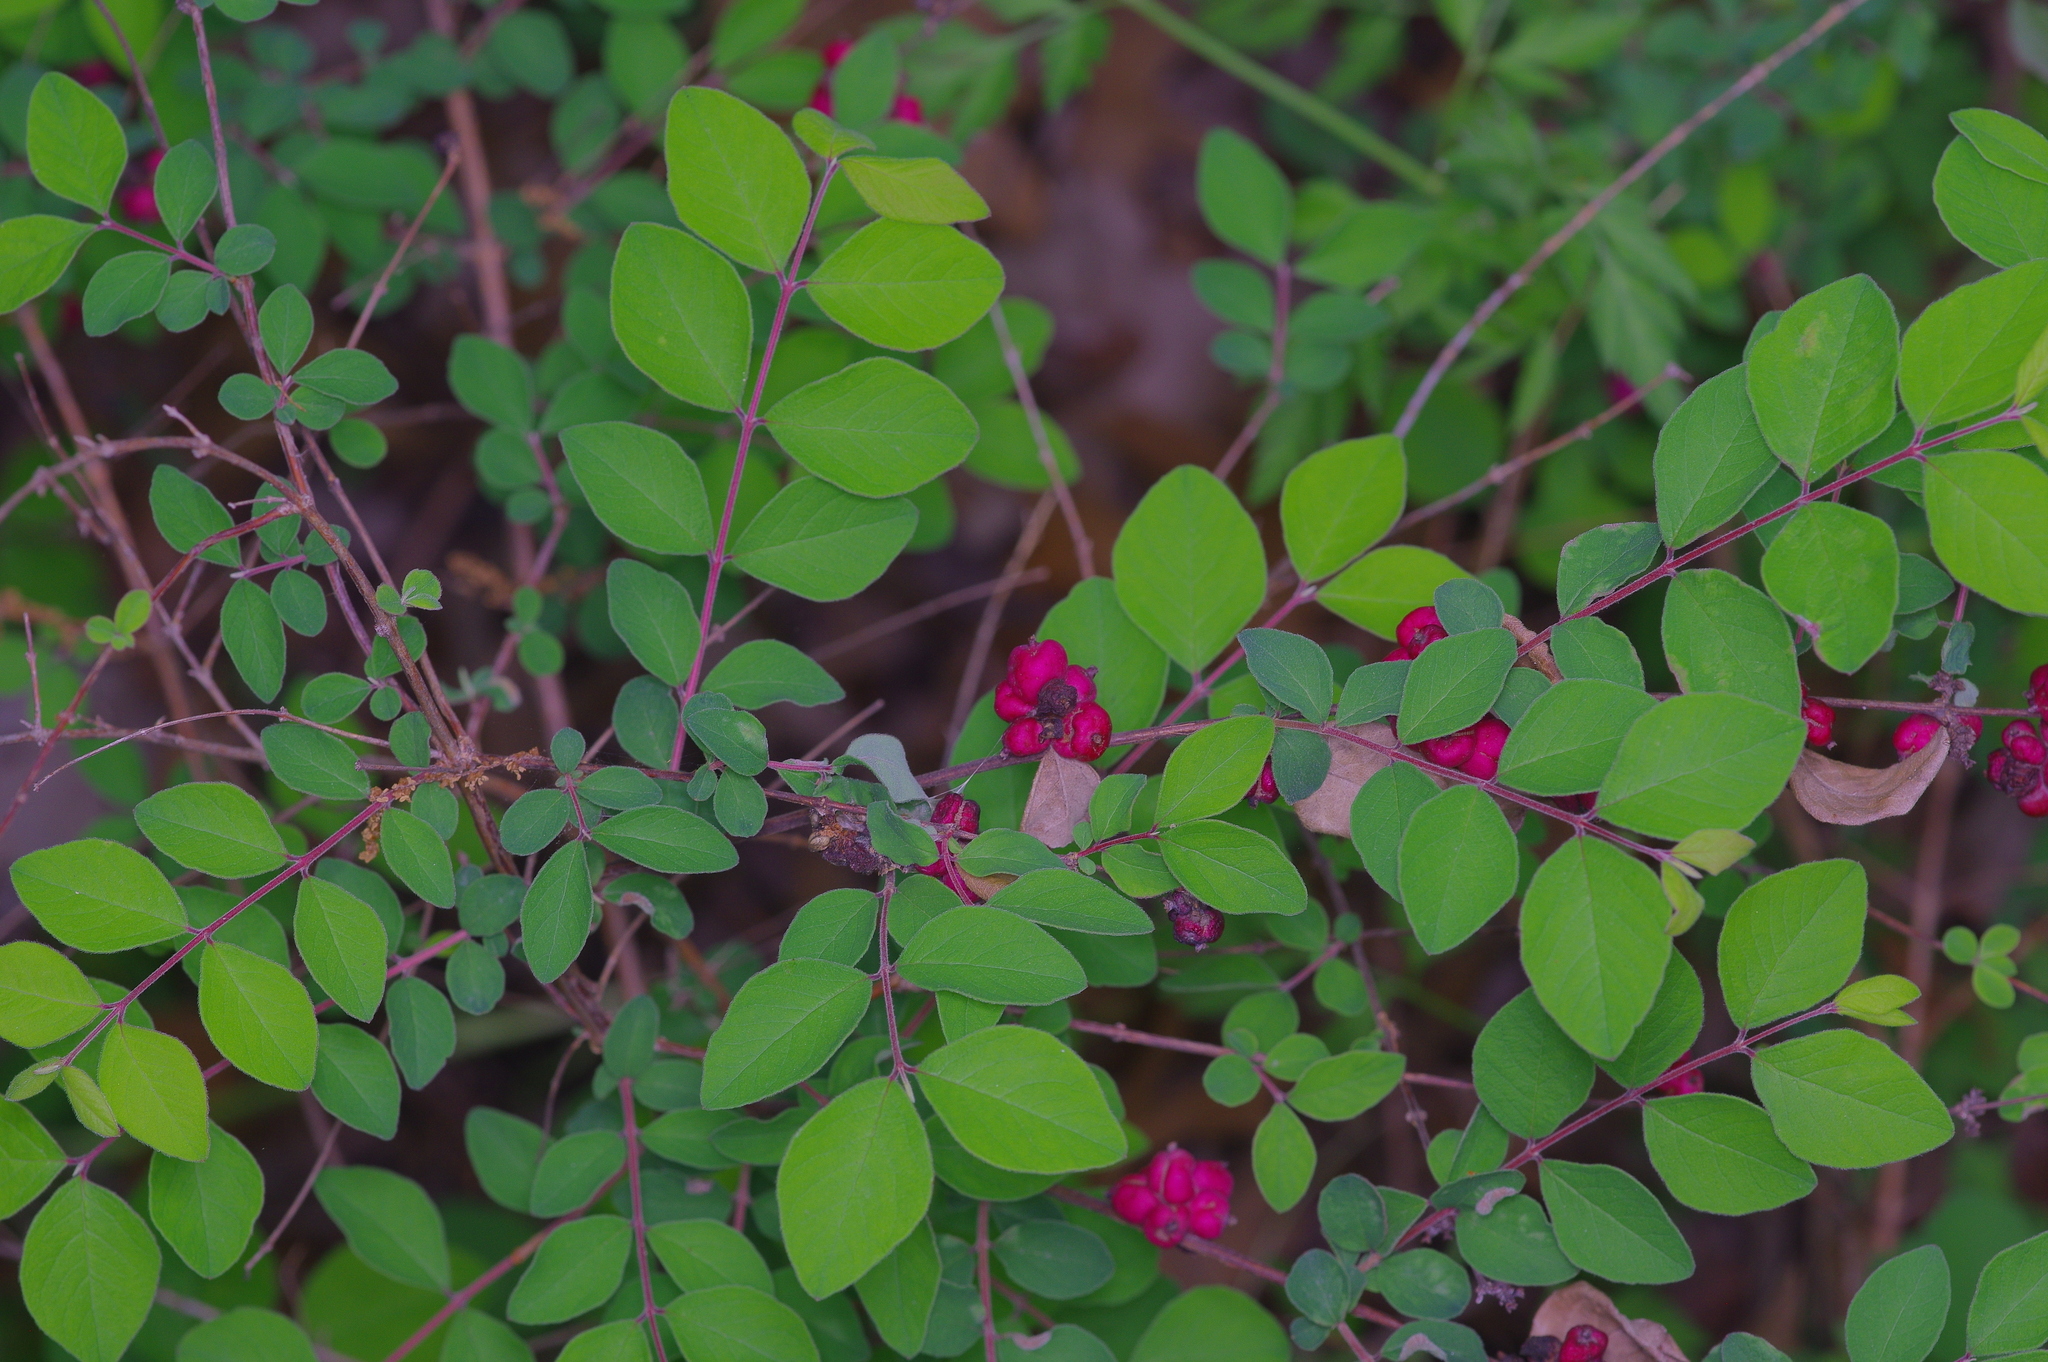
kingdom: Plantae
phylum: Tracheophyta
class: Magnoliopsida
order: Dipsacales
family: Caprifoliaceae
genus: Symphoricarpos
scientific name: Symphoricarpos orbiculatus
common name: Coralberry
